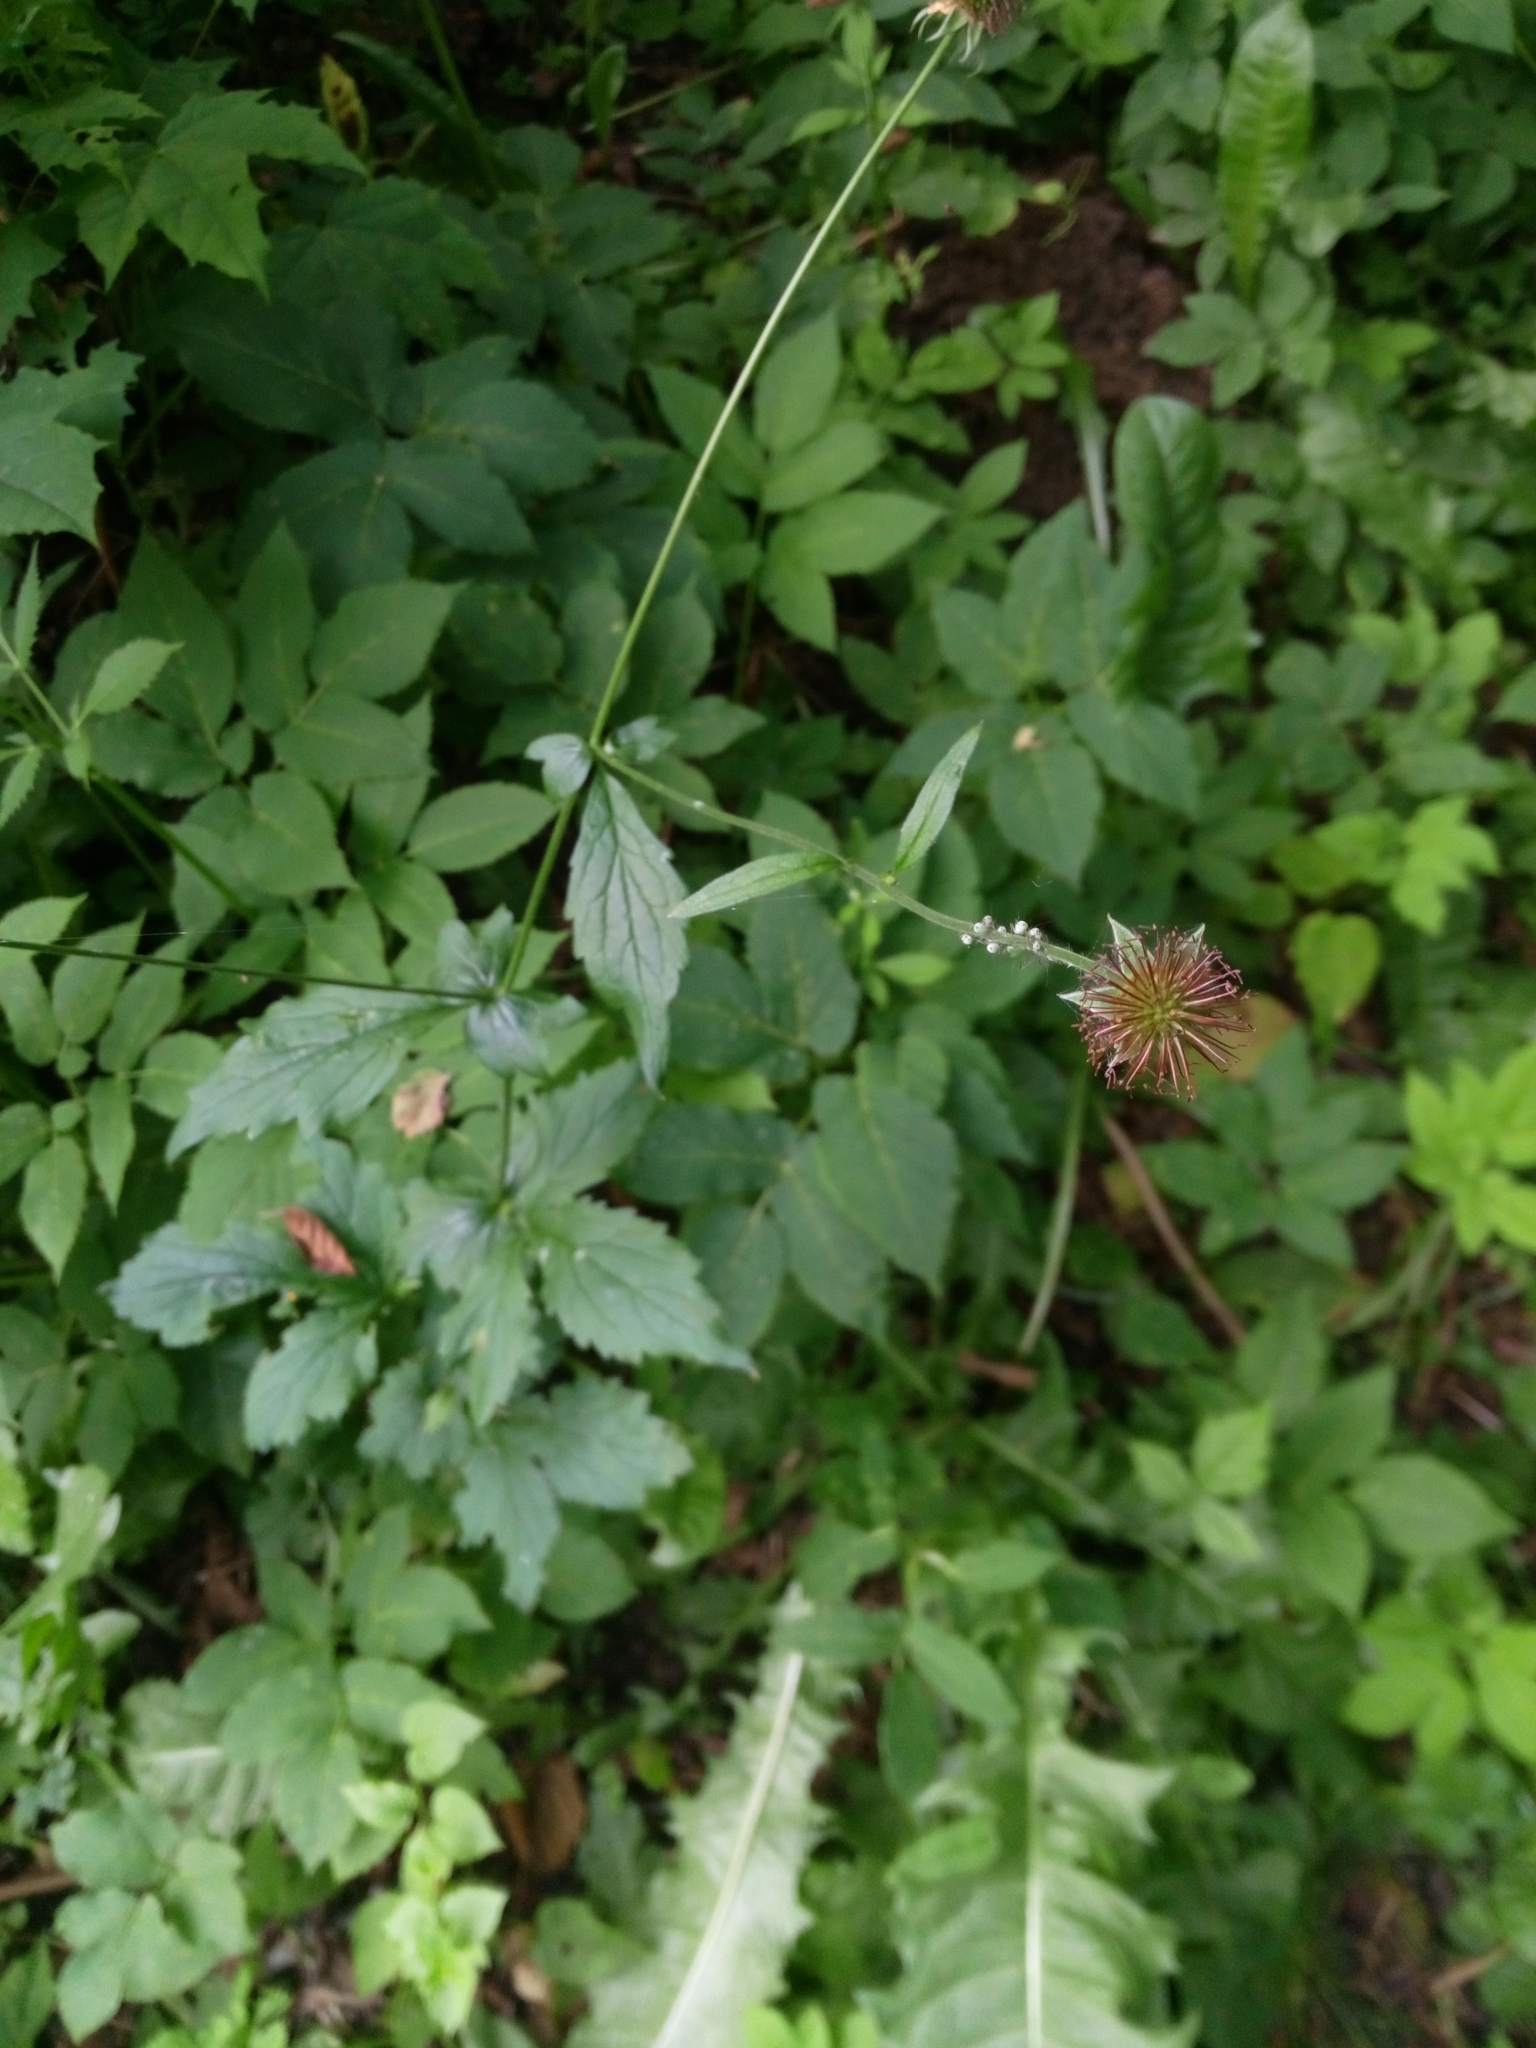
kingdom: Plantae
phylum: Tracheophyta
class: Magnoliopsida
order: Rosales
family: Rosaceae
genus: Geum
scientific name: Geum urbanum
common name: Wood avens
